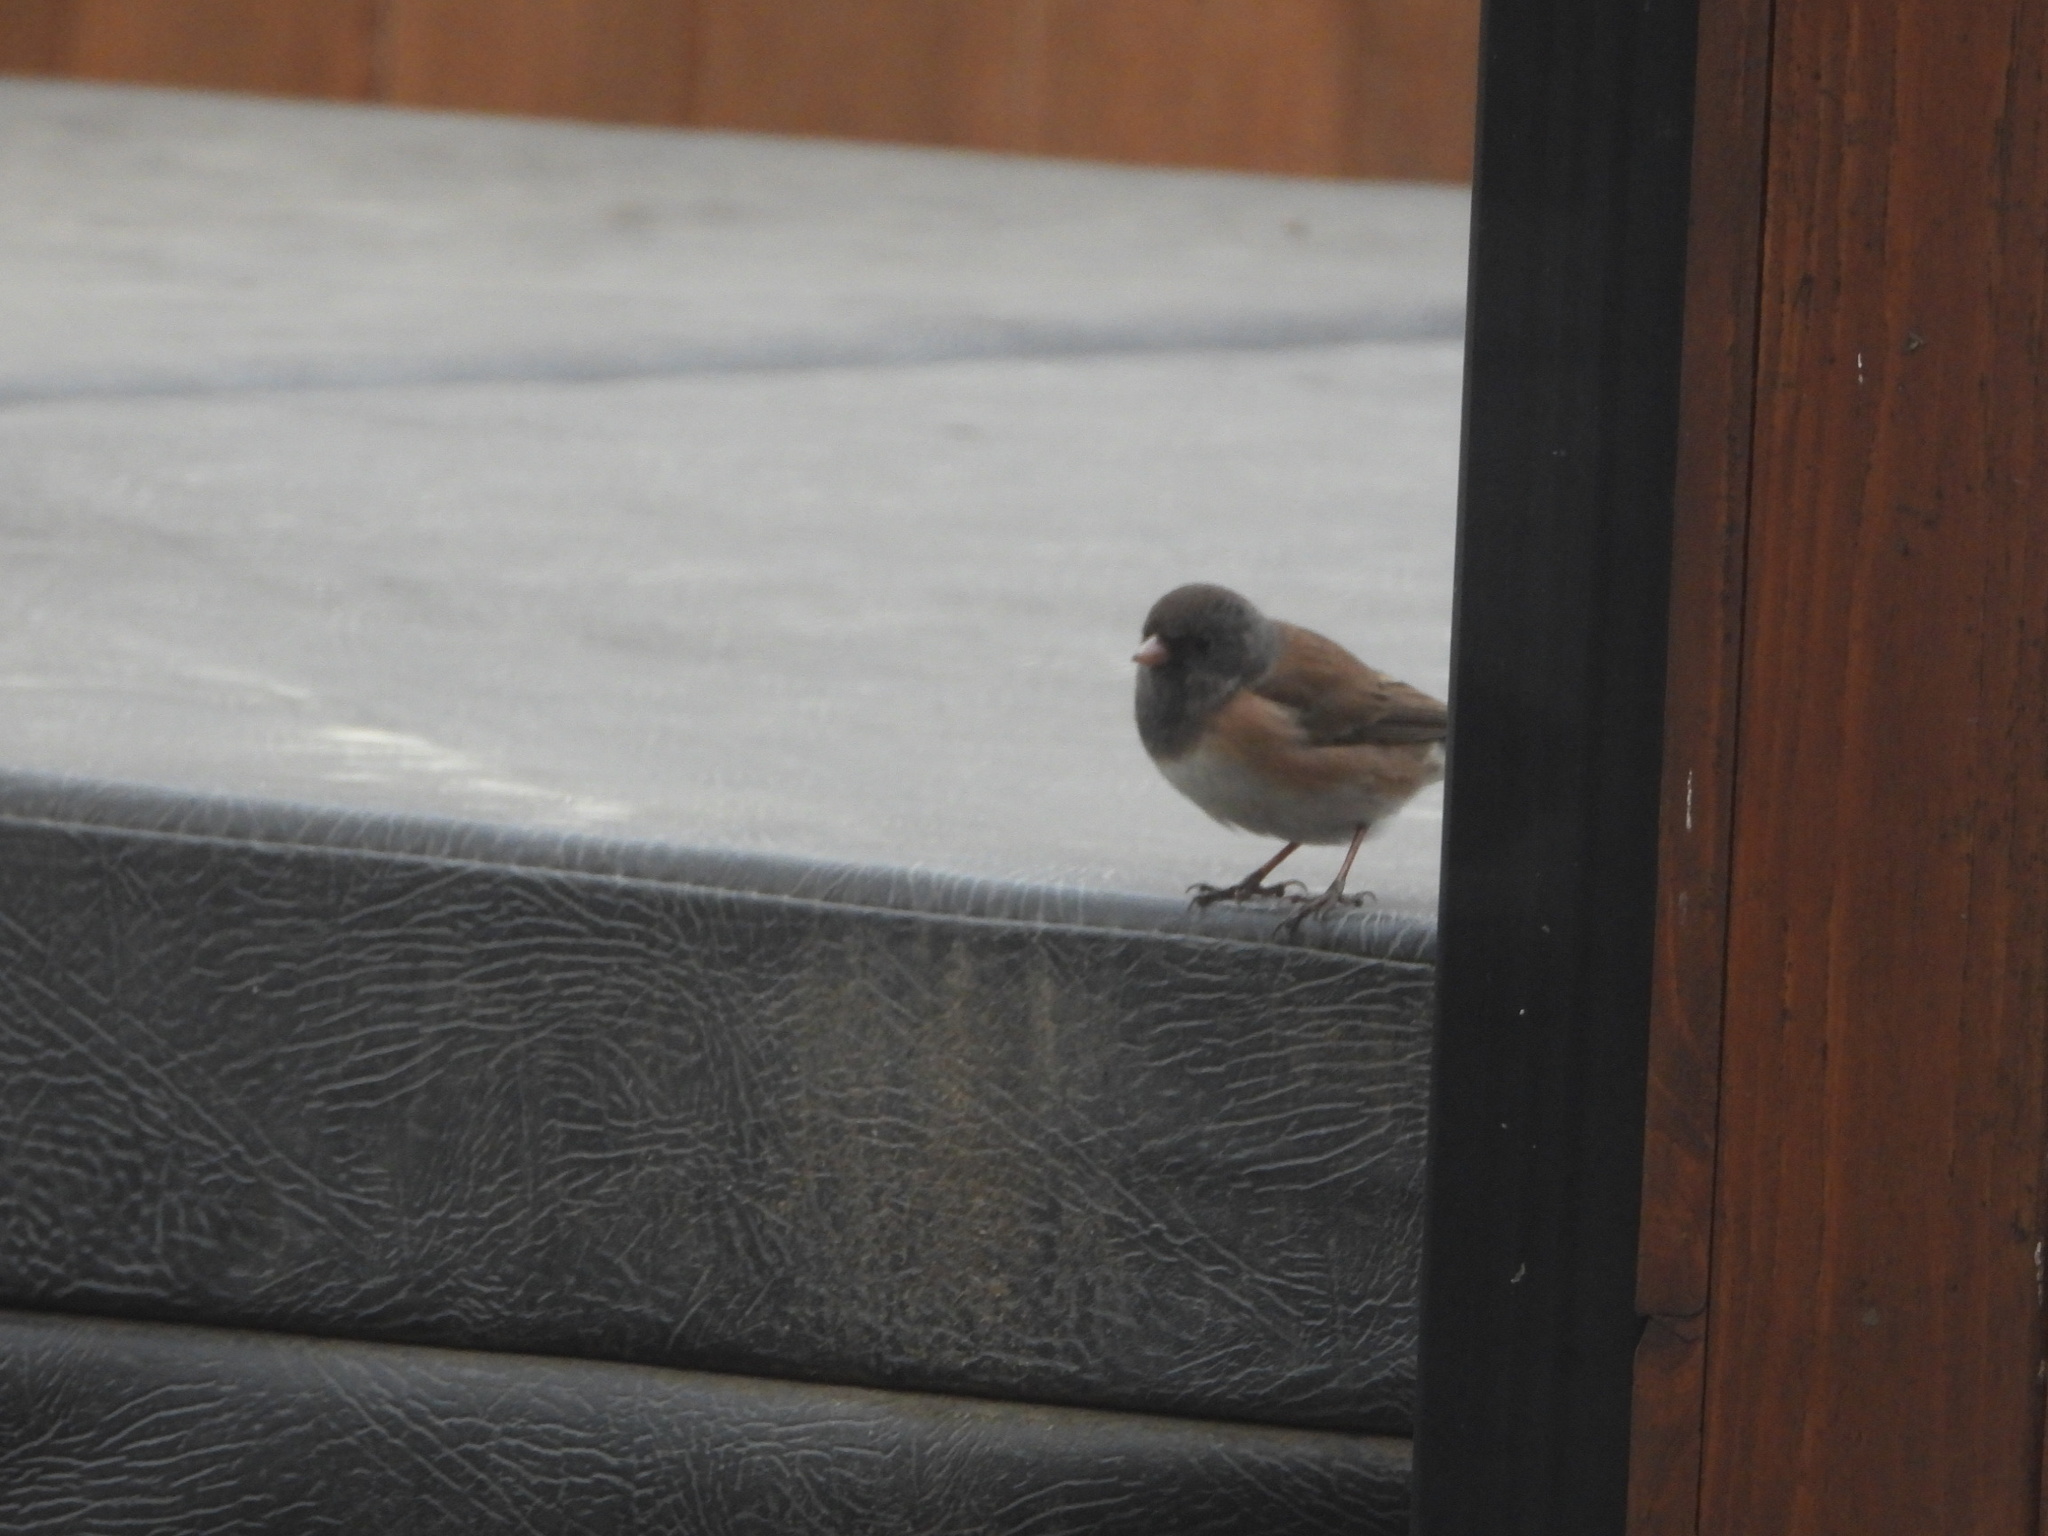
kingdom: Animalia
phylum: Chordata
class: Aves
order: Passeriformes
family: Passerellidae
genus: Junco
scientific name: Junco hyemalis
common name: Dark-eyed junco
